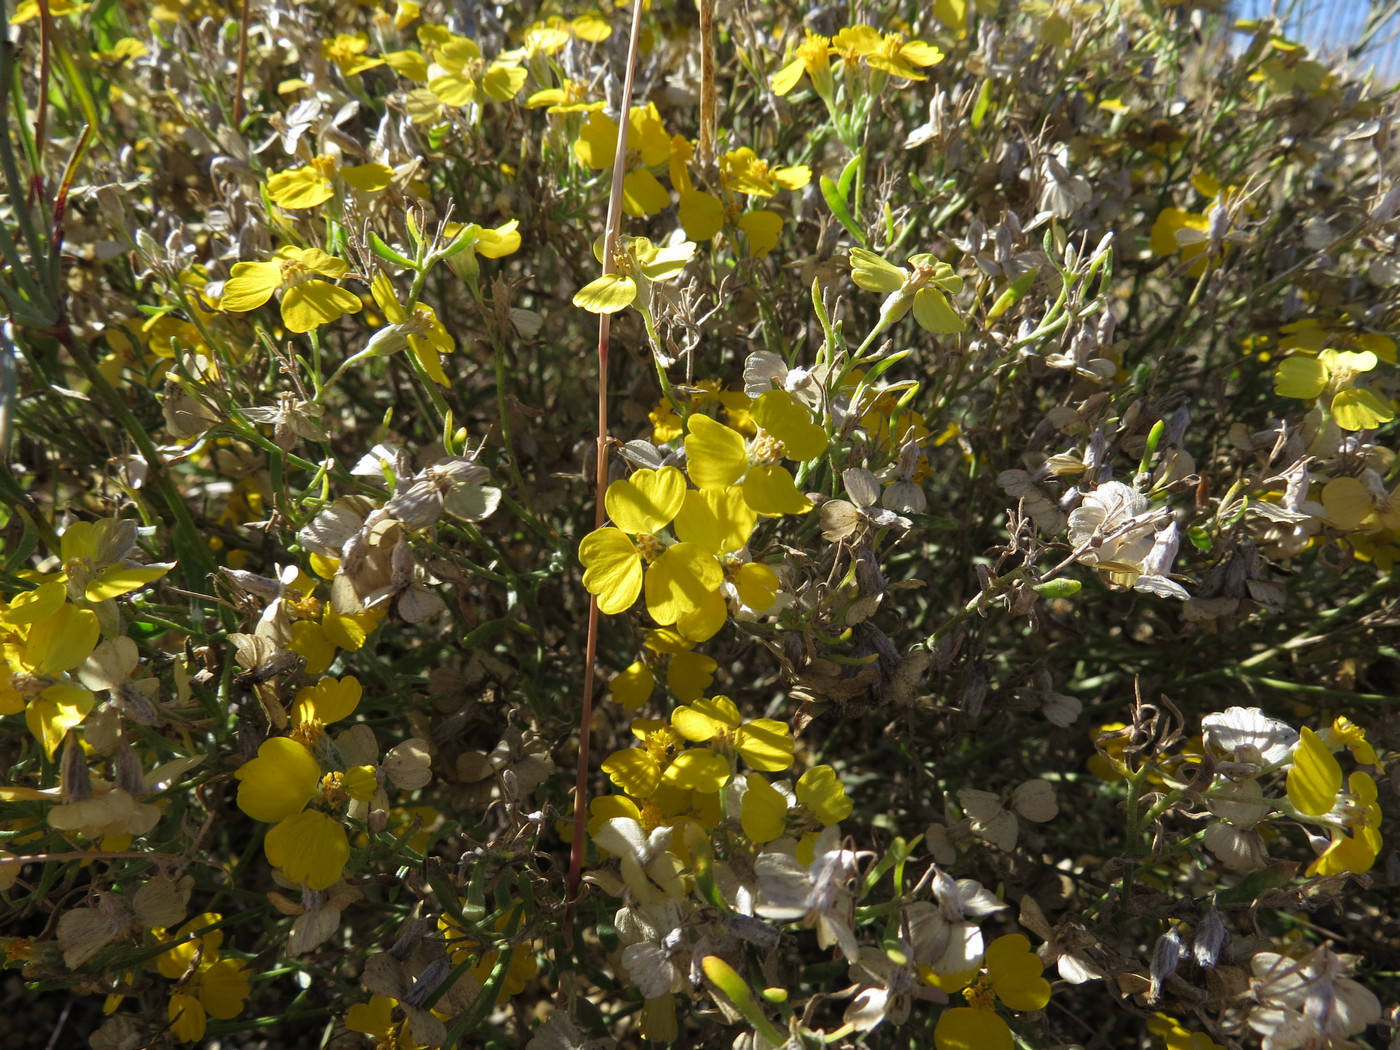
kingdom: Plantae
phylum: Tracheophyta
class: Magnoliopsida
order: Asterales
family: Asteraceae
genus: Psilostrophe
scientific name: Psilostrophe tagetina
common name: Marigold paper-flower
